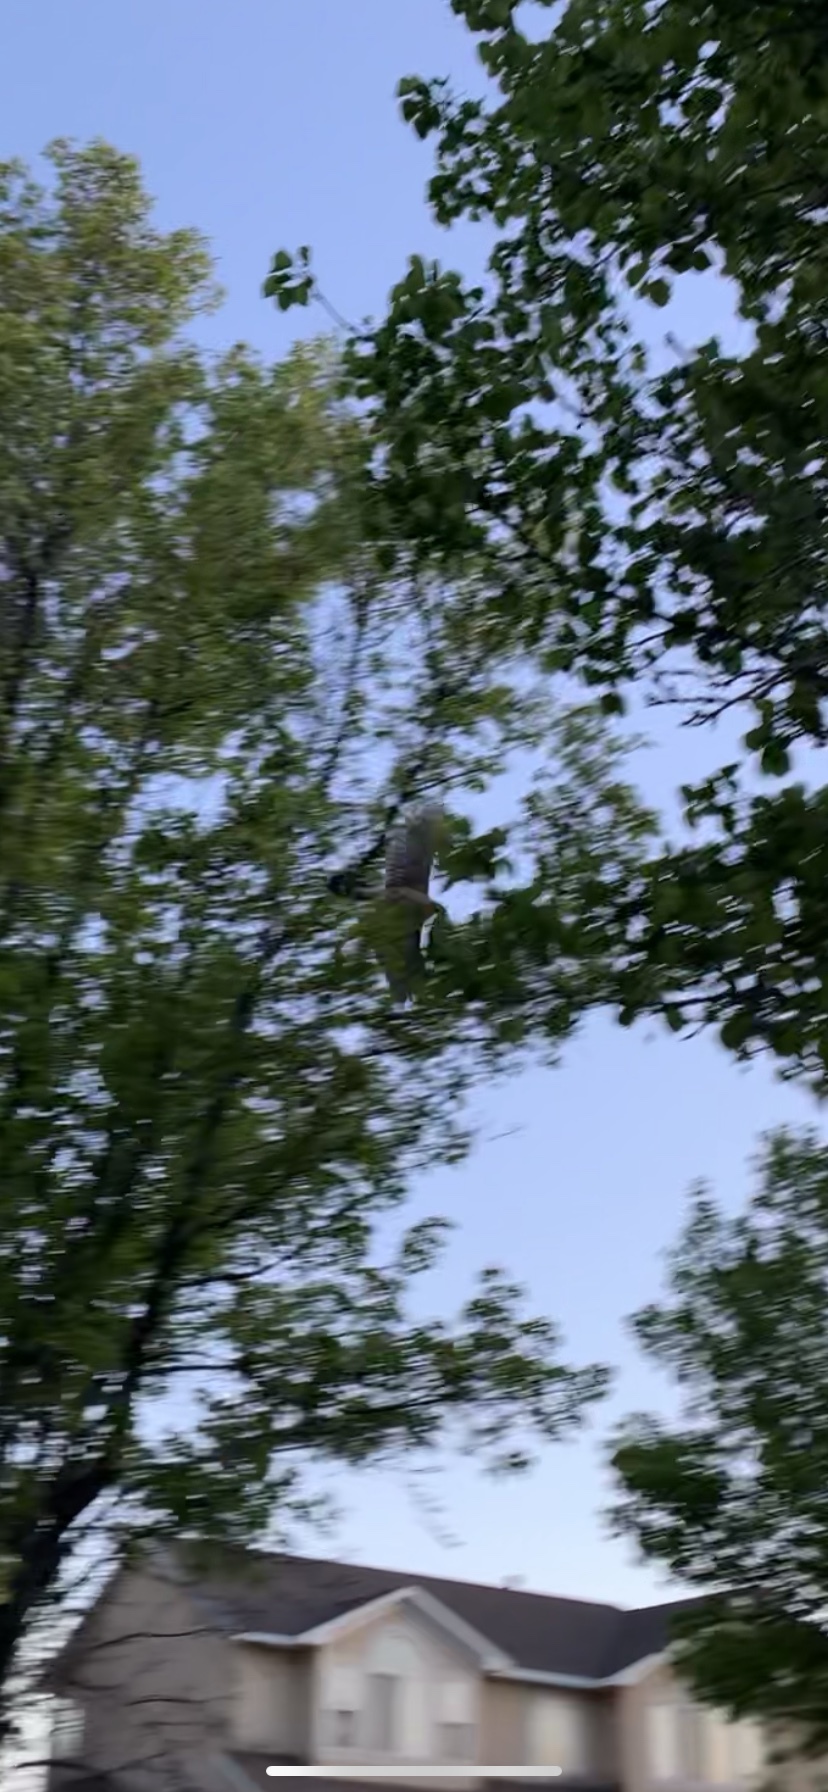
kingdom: Animalia
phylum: Chordata
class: Aves
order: Accipitriformes
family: Accipitridae
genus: Accipiter
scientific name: Accipiter cooperii
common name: Cooper's hawk
